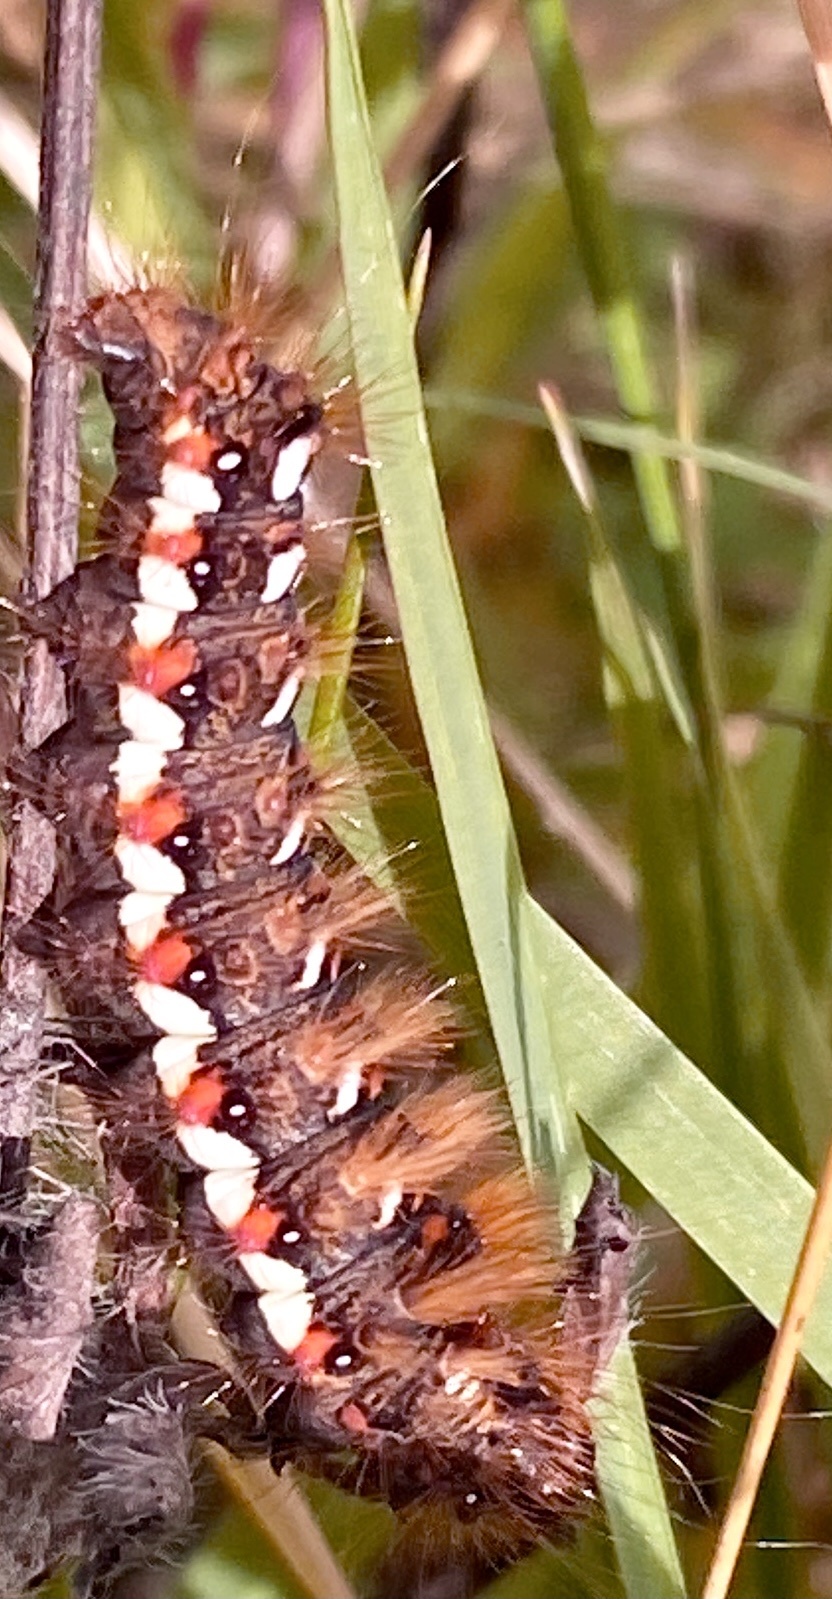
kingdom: Animalia
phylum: Arthropoda
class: Insecta
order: Lepidoptera
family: Noctuidae
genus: Acronicta
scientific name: Acronicta rumicis
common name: Knot grass
